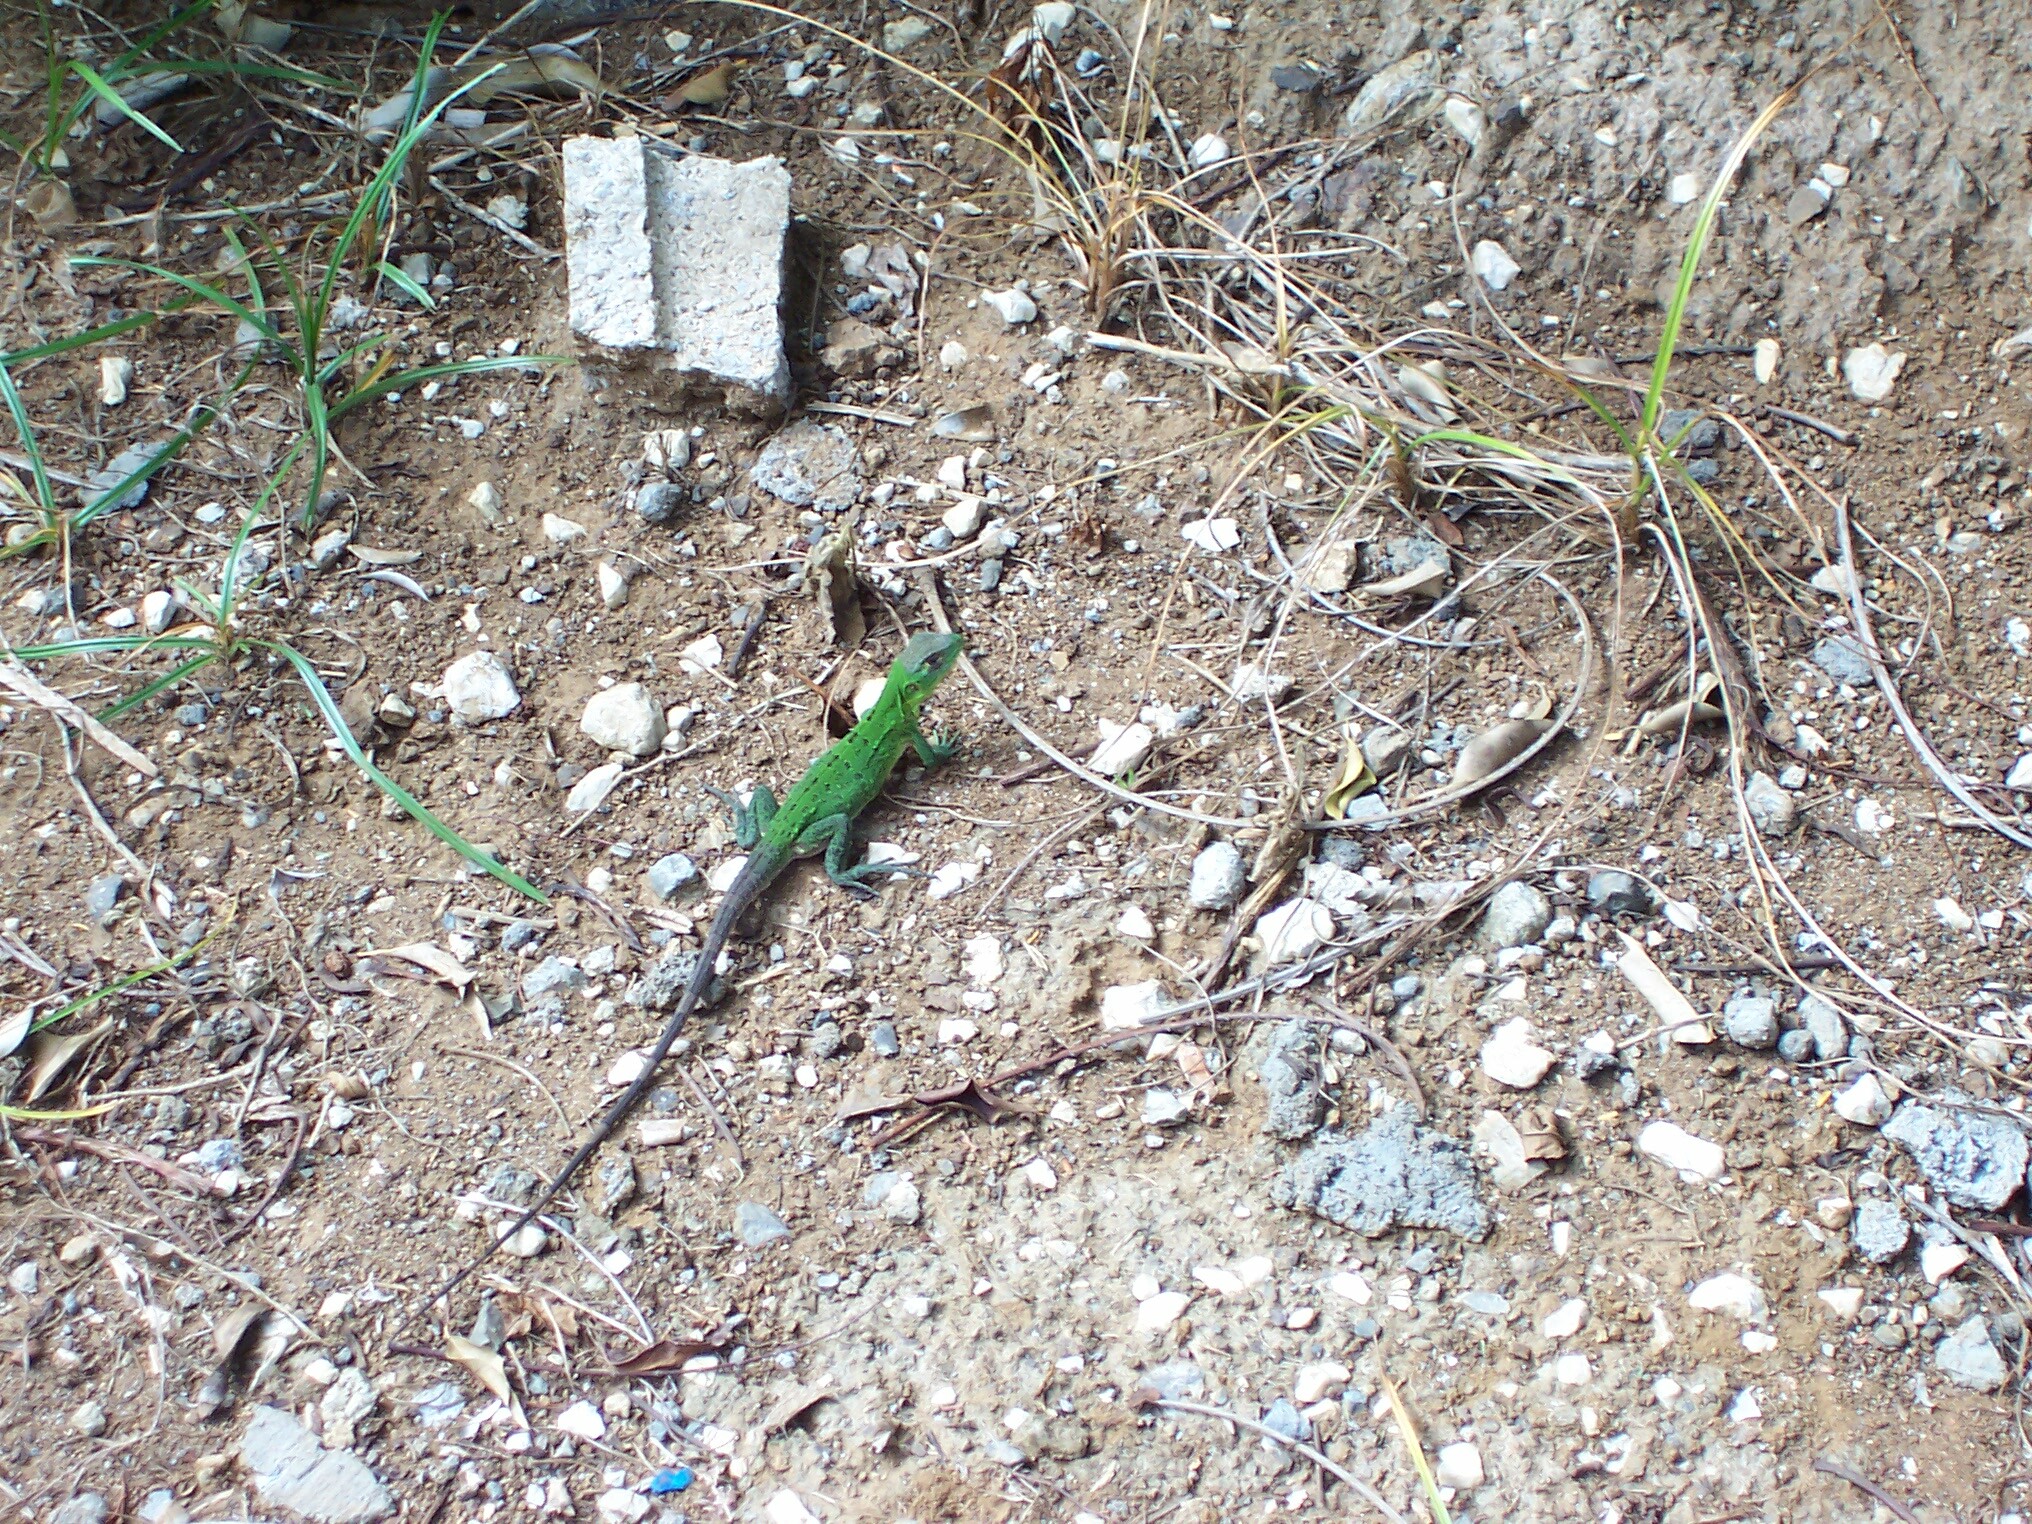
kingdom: Animalia
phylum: Chordata
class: Squamata
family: Iguanidae
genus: Ctenosaura
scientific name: Ctenosaura similis
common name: Black spiny-tailed iguana
